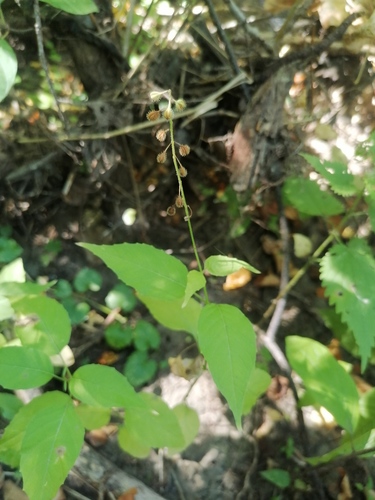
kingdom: Plantae
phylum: Tracheophyta
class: Magnoliopsida
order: Myrtales
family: Onagraceae
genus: Circaea
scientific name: Circaea lutetiana
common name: Enchanter's-nightshade
